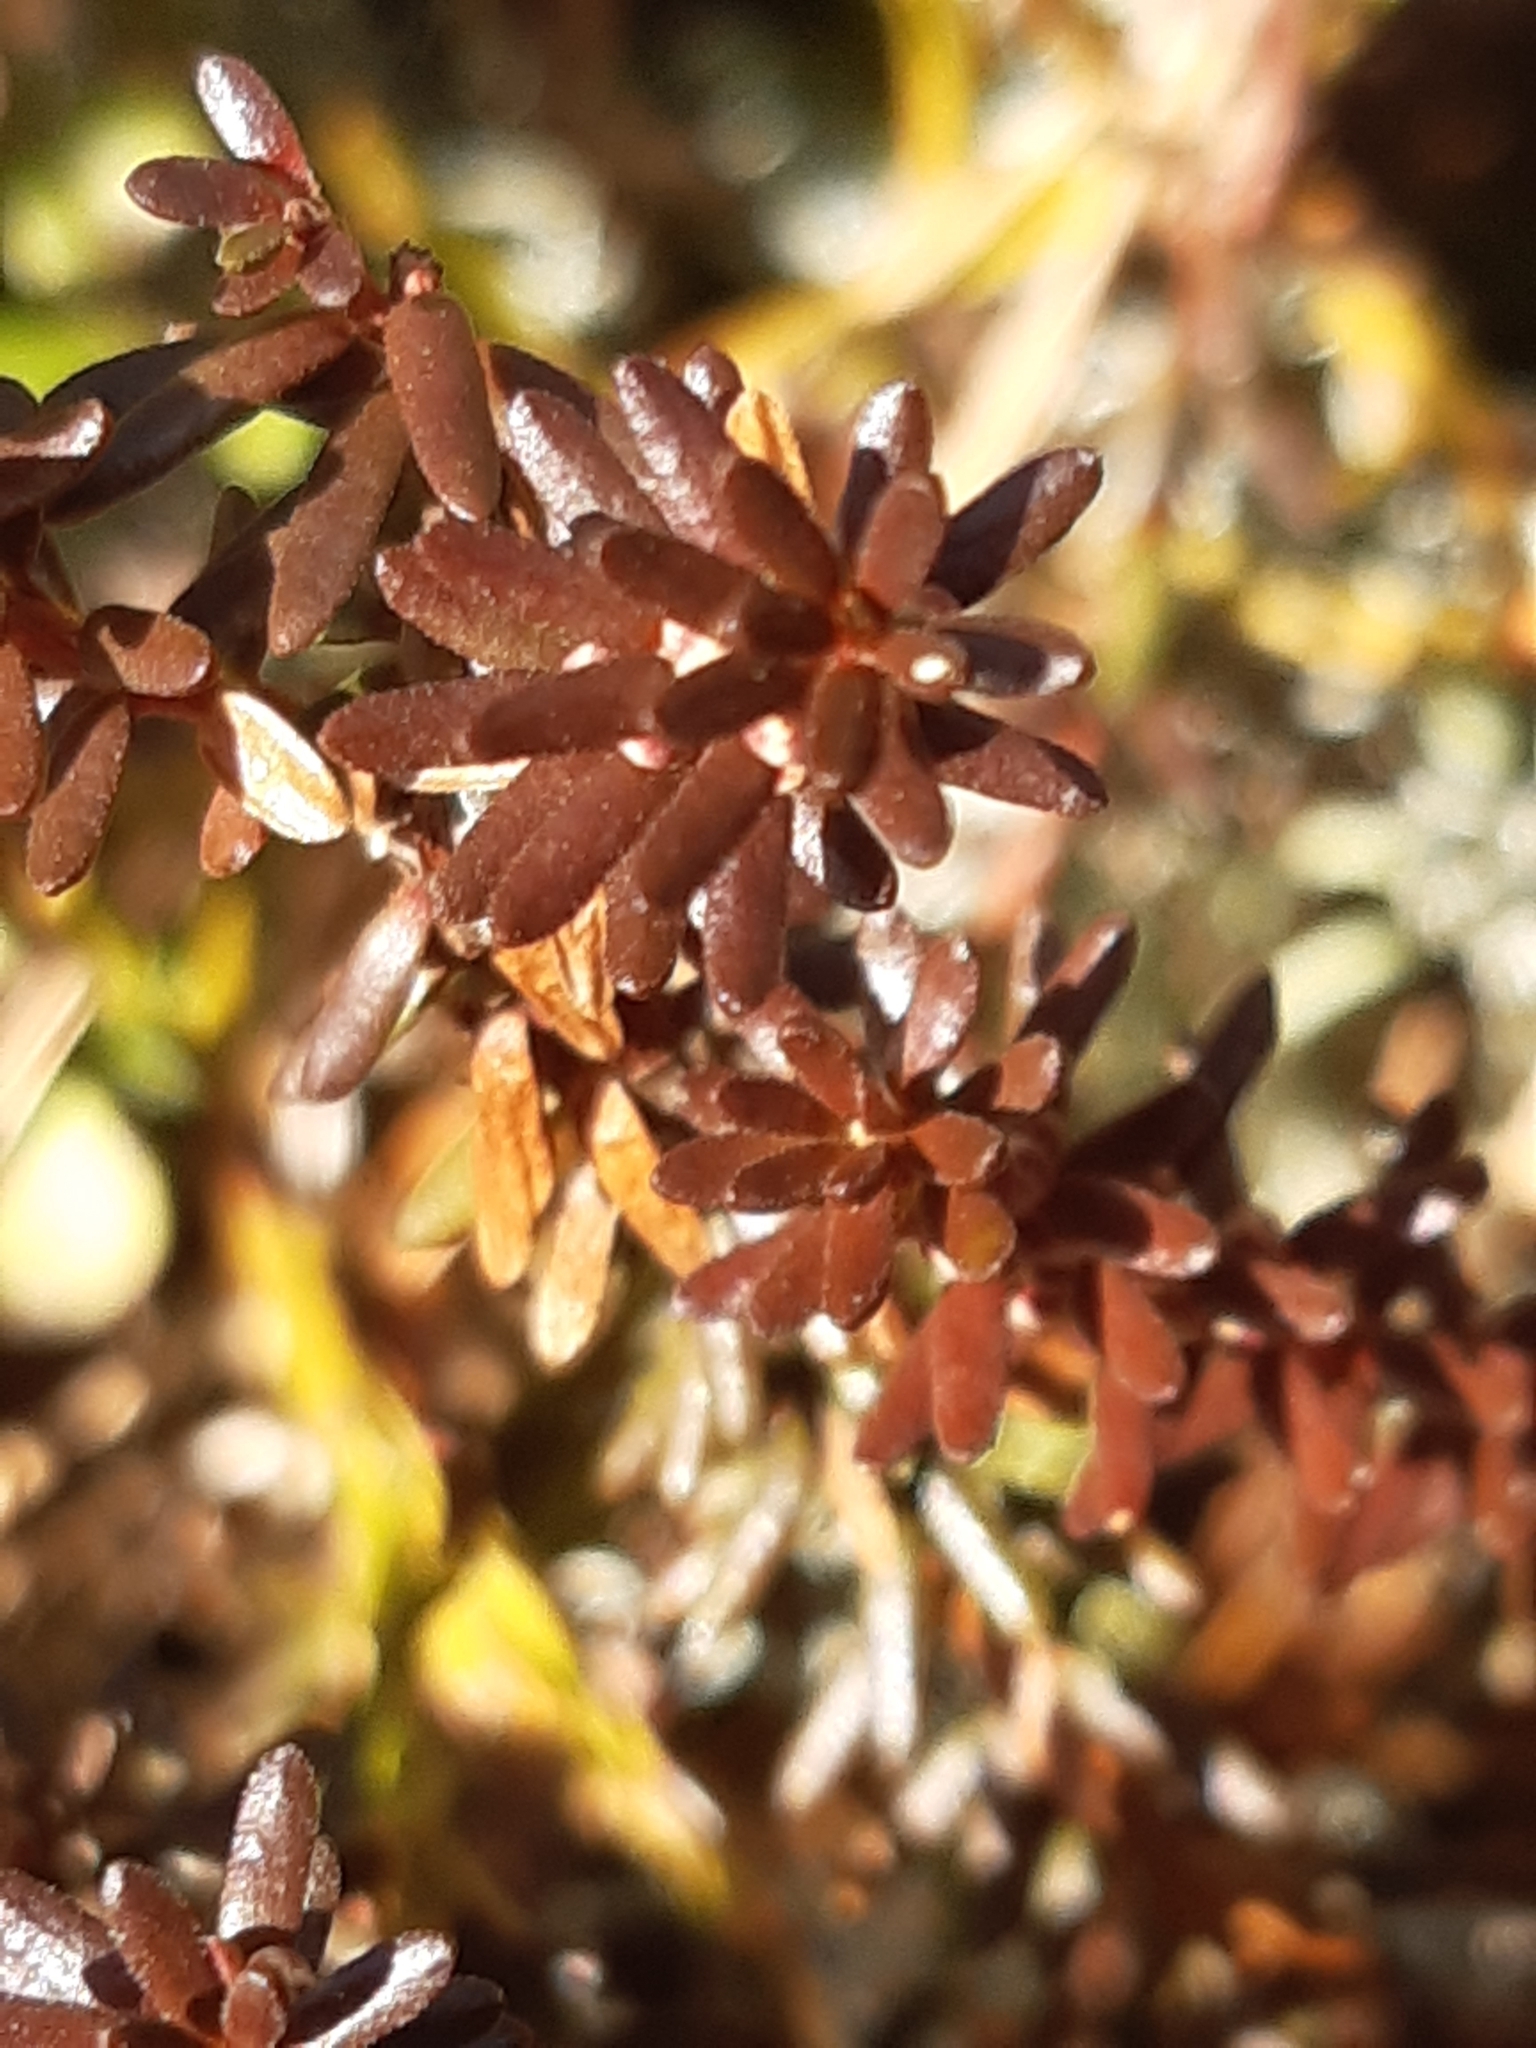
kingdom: Plantae
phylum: Tracheophyta
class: Magnoliopsida
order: Ericales
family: Ericaceae
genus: Empetrum
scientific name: Empetrum nigrum
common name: Black crowberry
